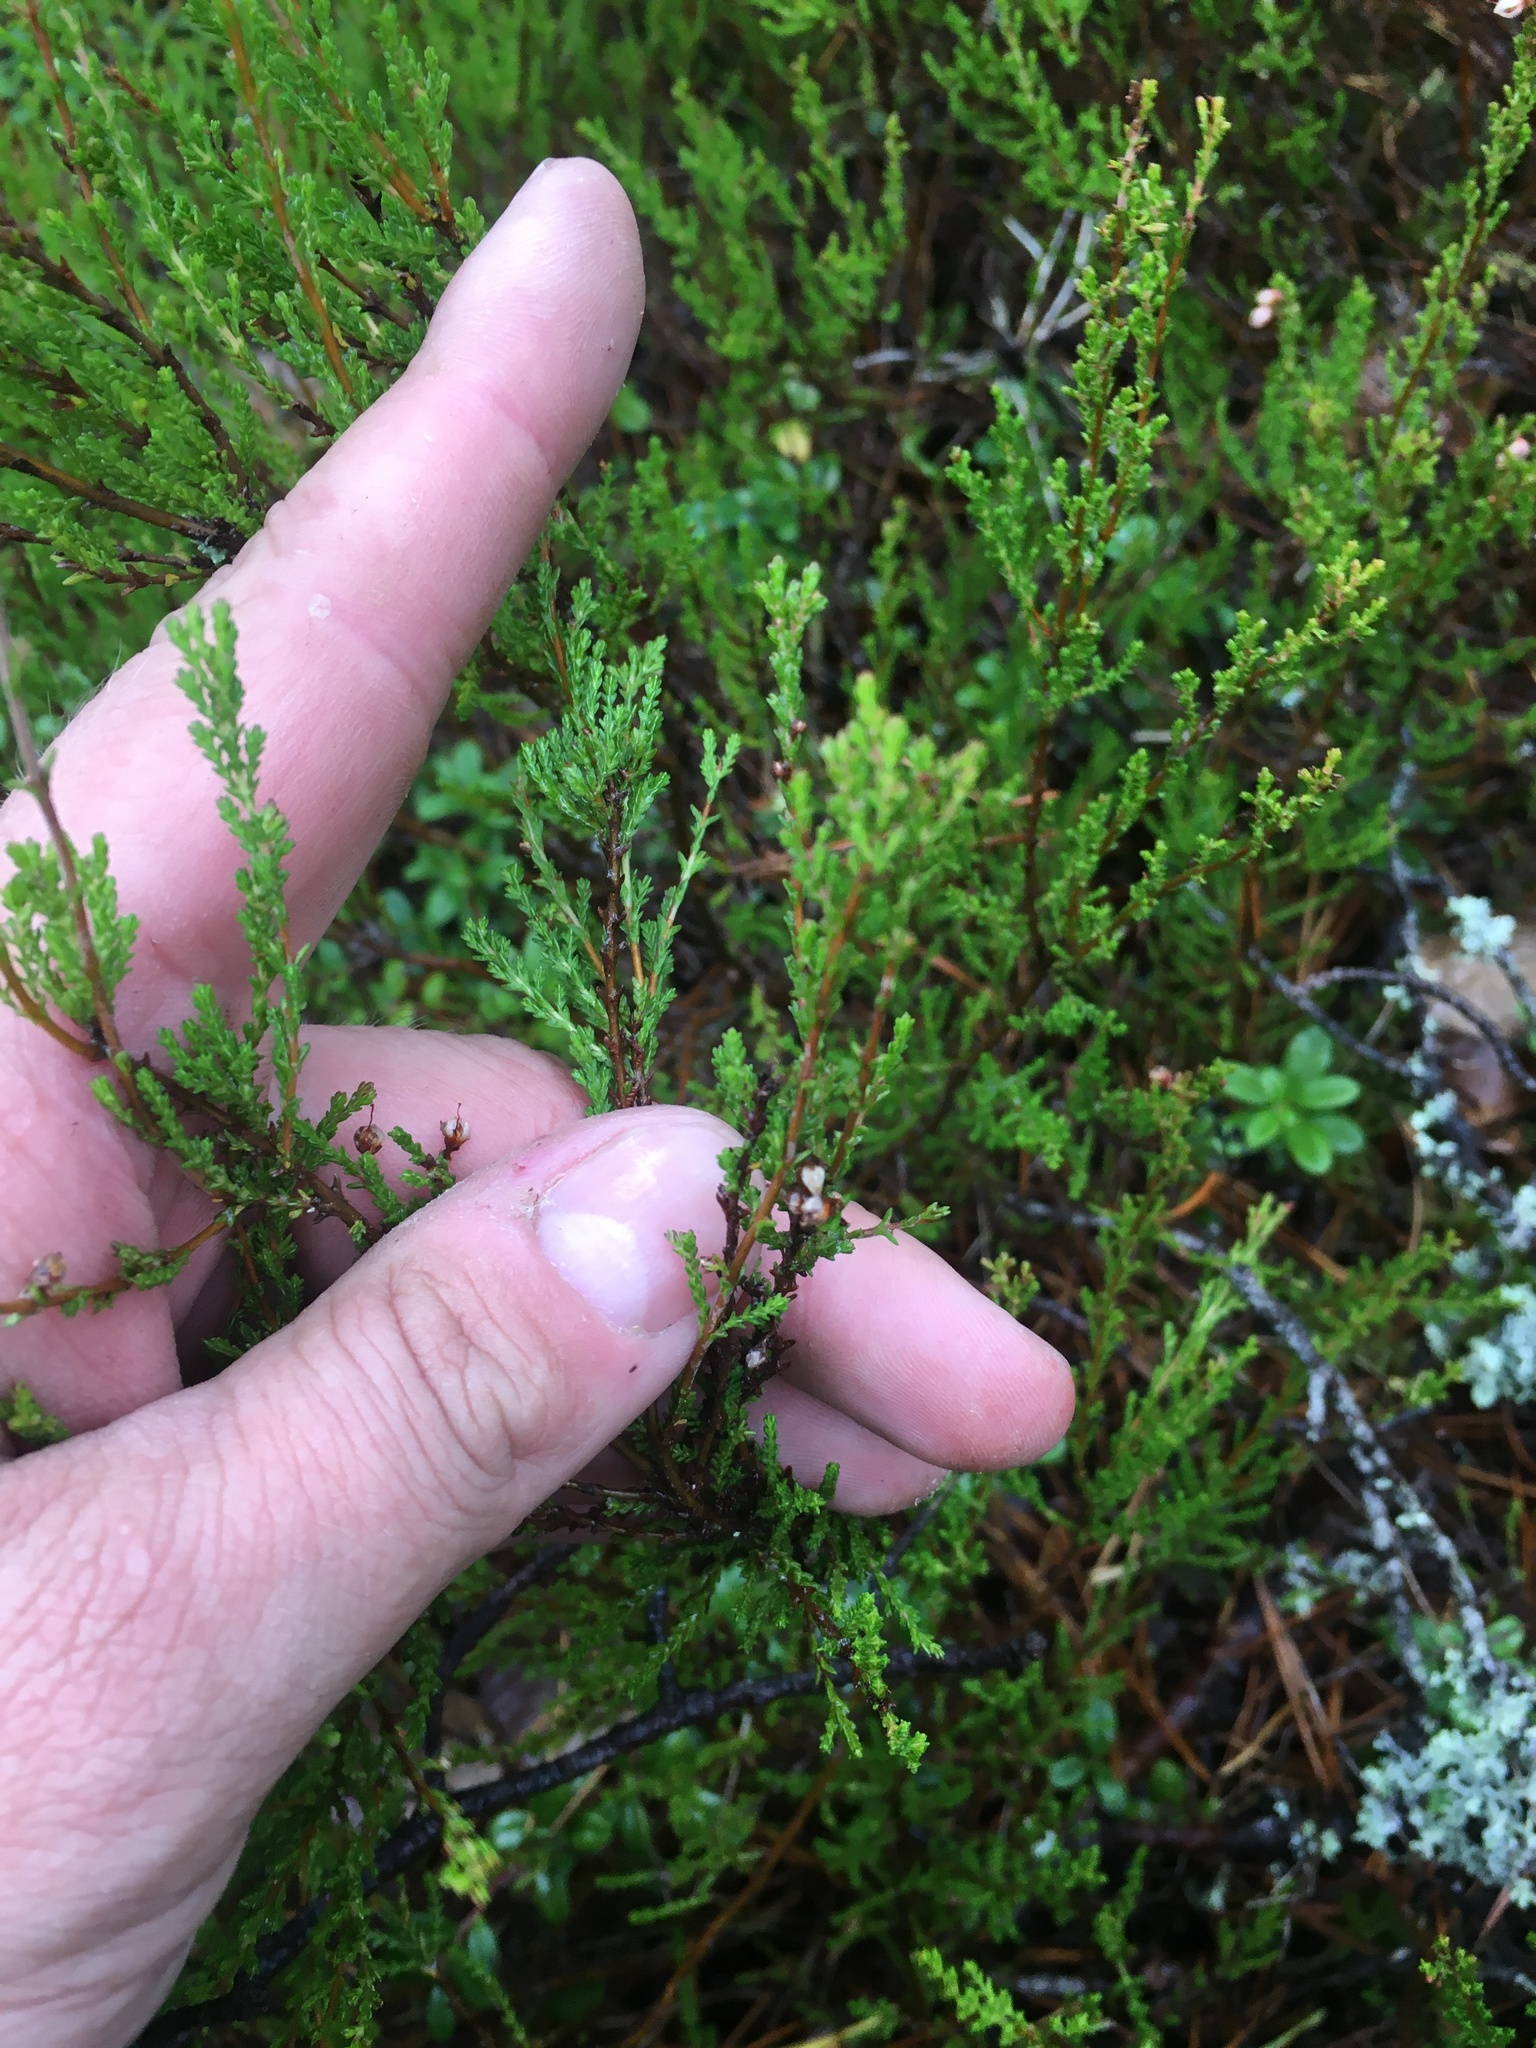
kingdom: Plantae
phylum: Tracheophyta
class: Magnoliopsida
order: Ericales
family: Ericaceae
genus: Calluna
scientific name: Calluna vulgaris
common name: Heather
